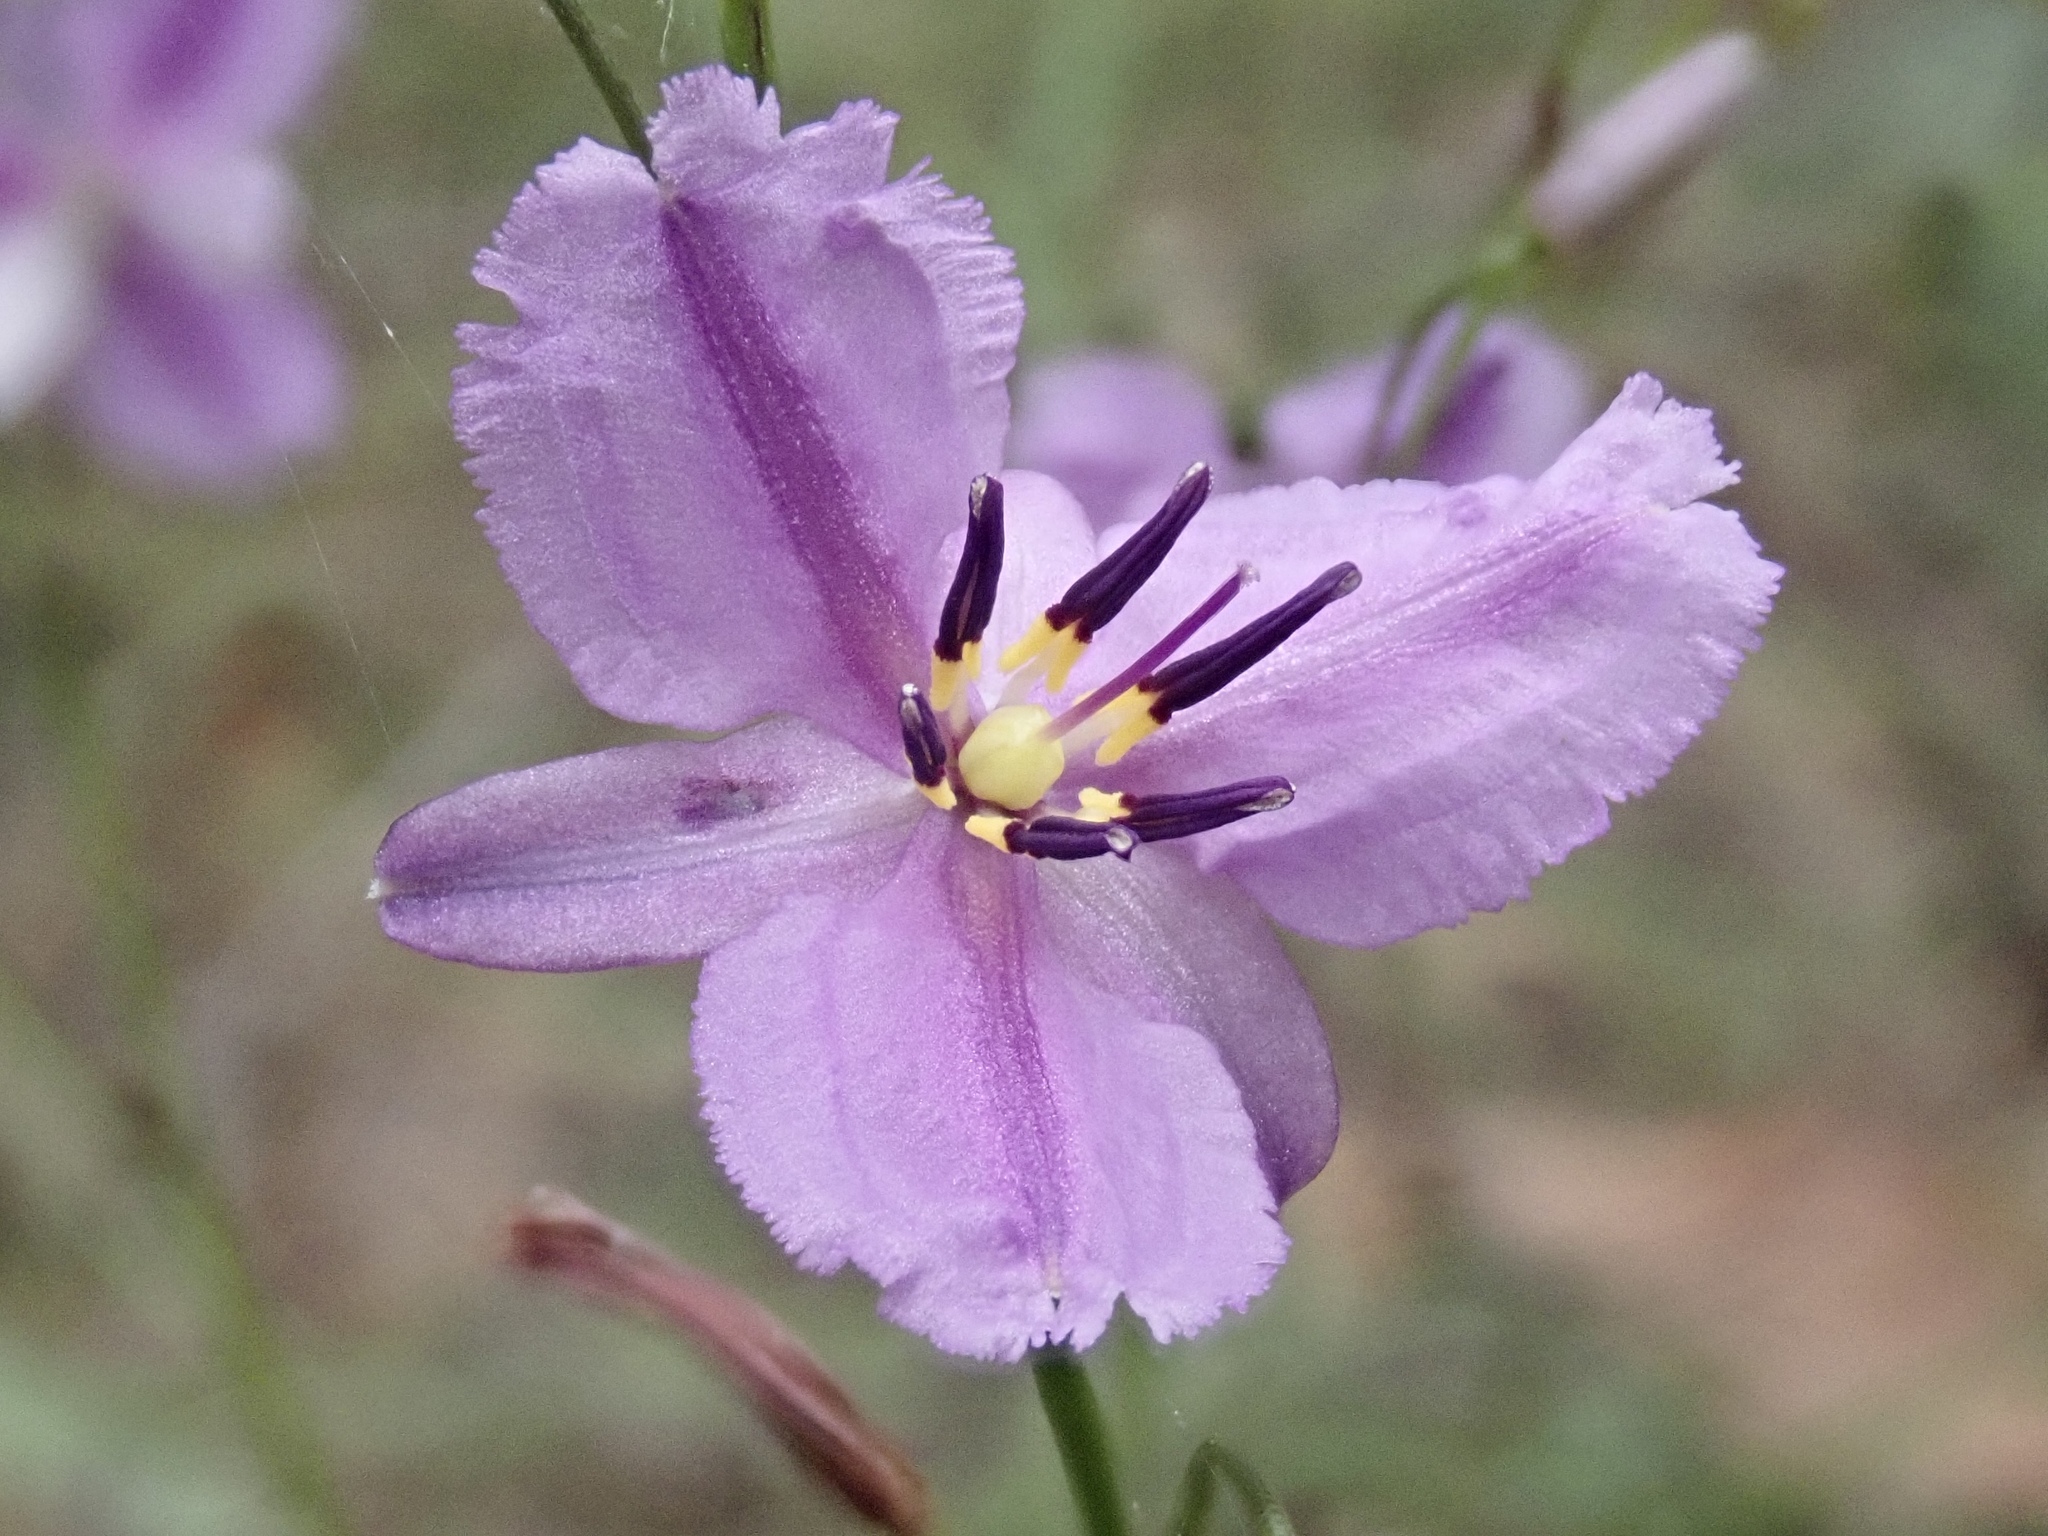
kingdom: Plantae
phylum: Tracheophyta
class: Liliopsida
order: Asparagales
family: Asparagaceae
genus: Arthropodium
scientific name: Arthropodium strictum
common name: Chocolate-lily
